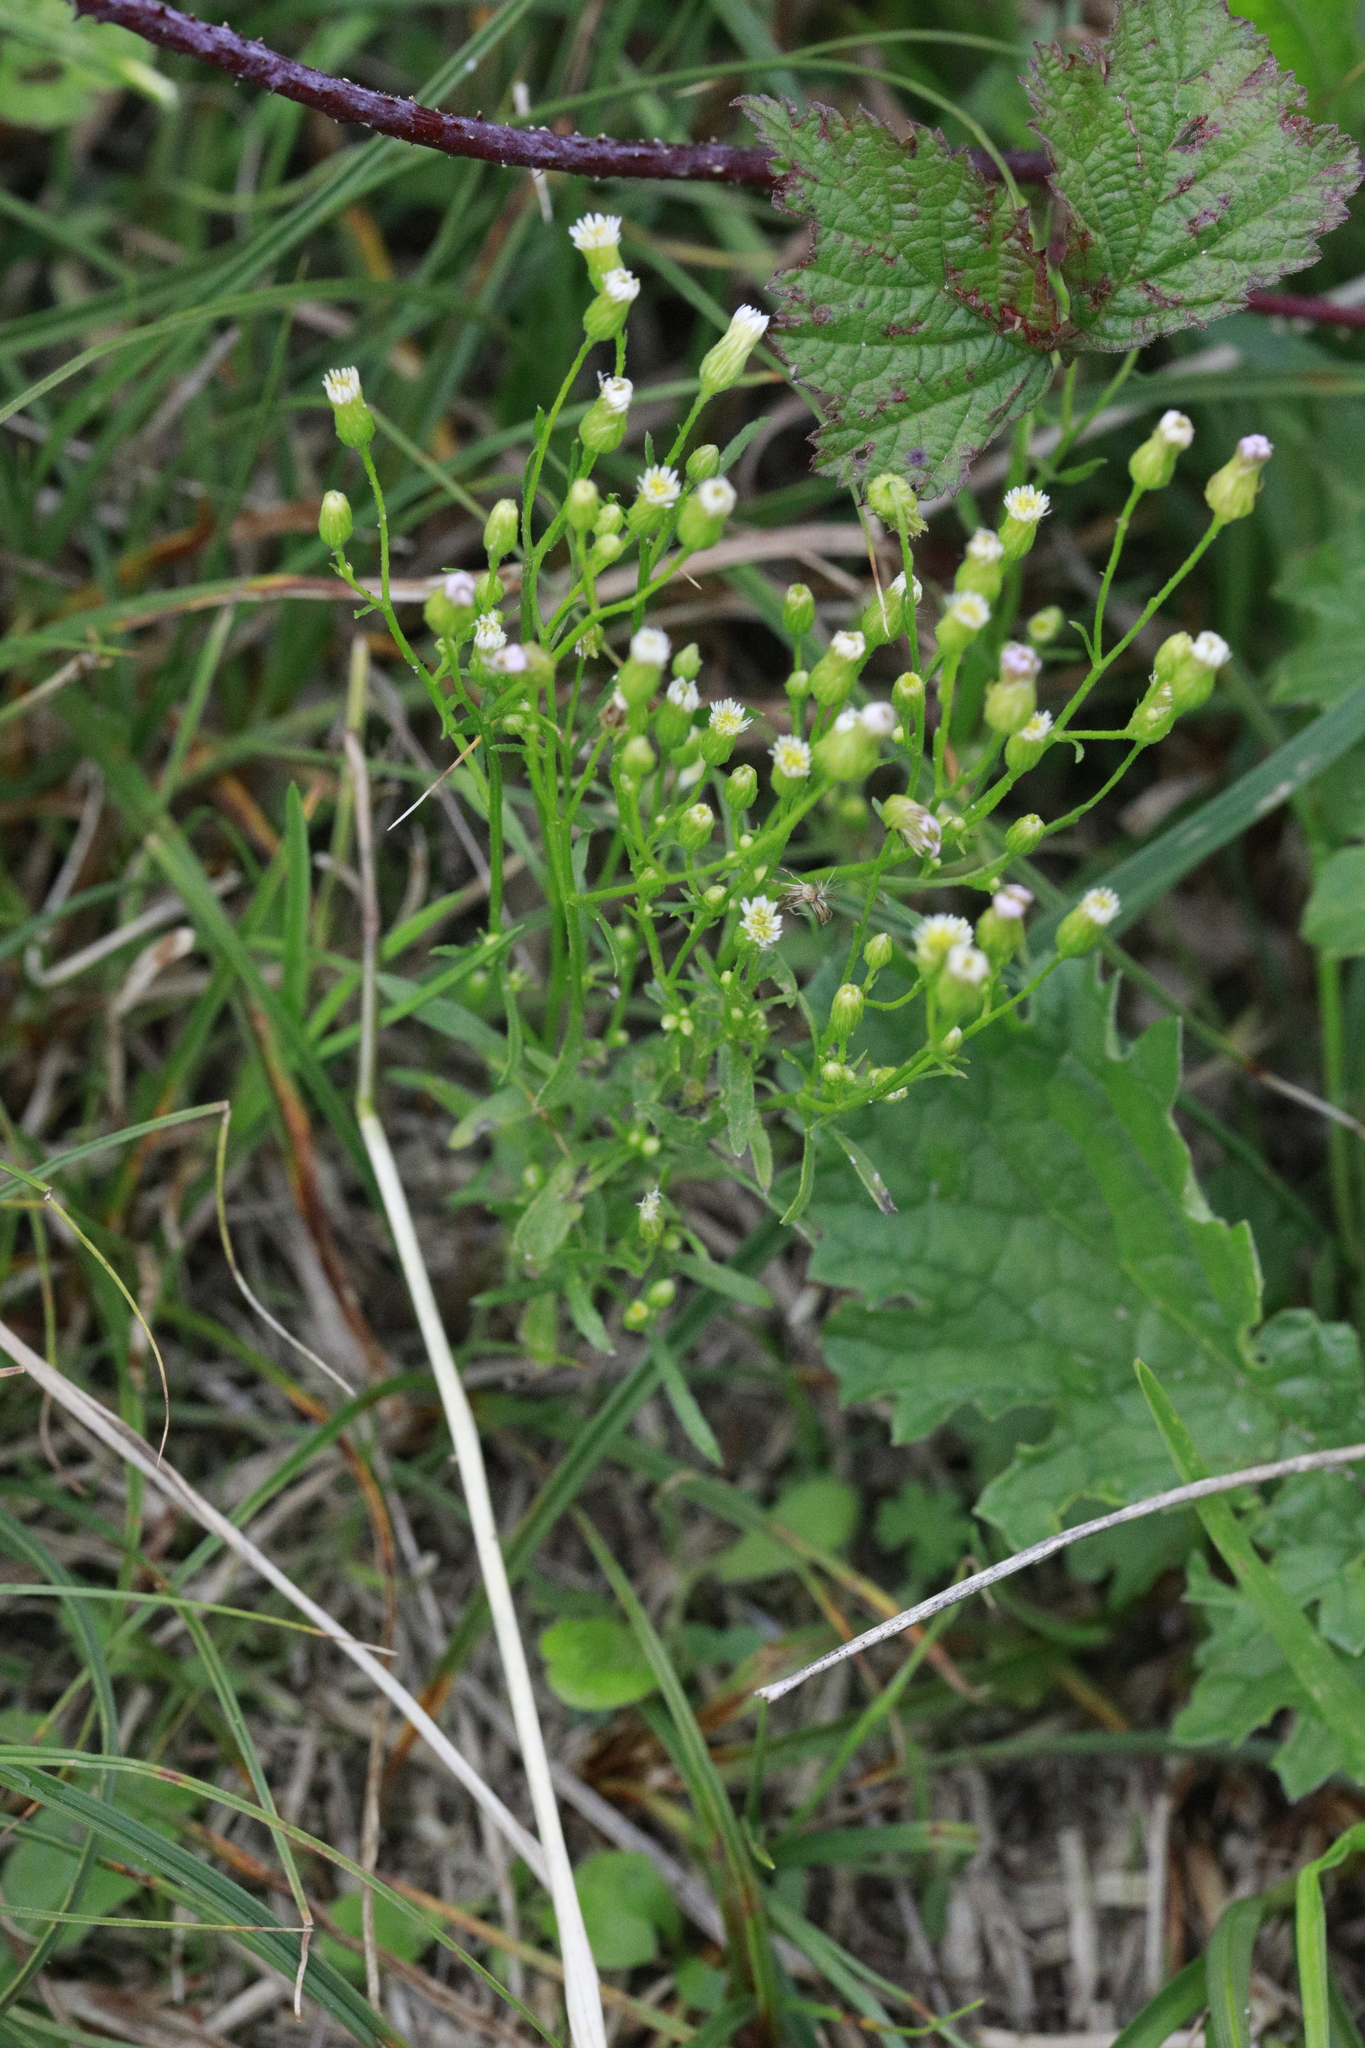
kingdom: Plantae
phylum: Tracheophyta
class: Magnoliopsida
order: Asterales
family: Asteraceae
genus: Erigeron
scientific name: Erigeron canadensis
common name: Canadian fleabane
